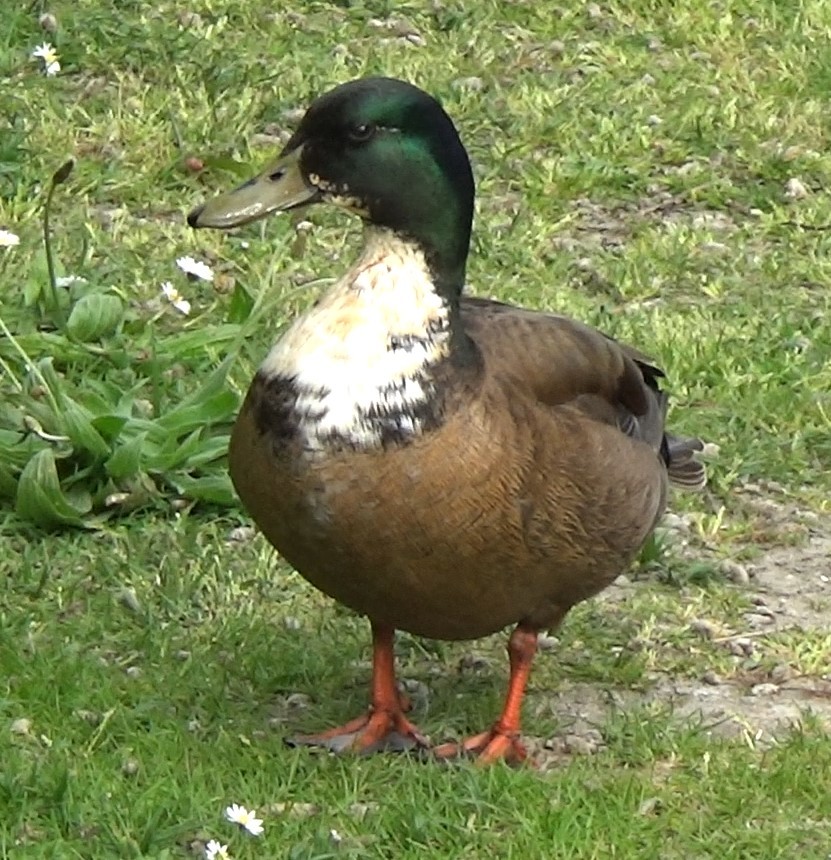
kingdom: Animalia
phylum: Chordata
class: Aves
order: Anseriformes
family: Anatidae
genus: Anas
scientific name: Anas platyrhynchos
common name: Mallard
